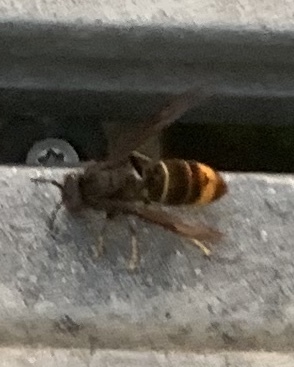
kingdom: Animalia
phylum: Arthropoda
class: Insecta
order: Hymenoptera
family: Vespidae
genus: Vespa
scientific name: Vespa velutina
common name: Asian hornet
